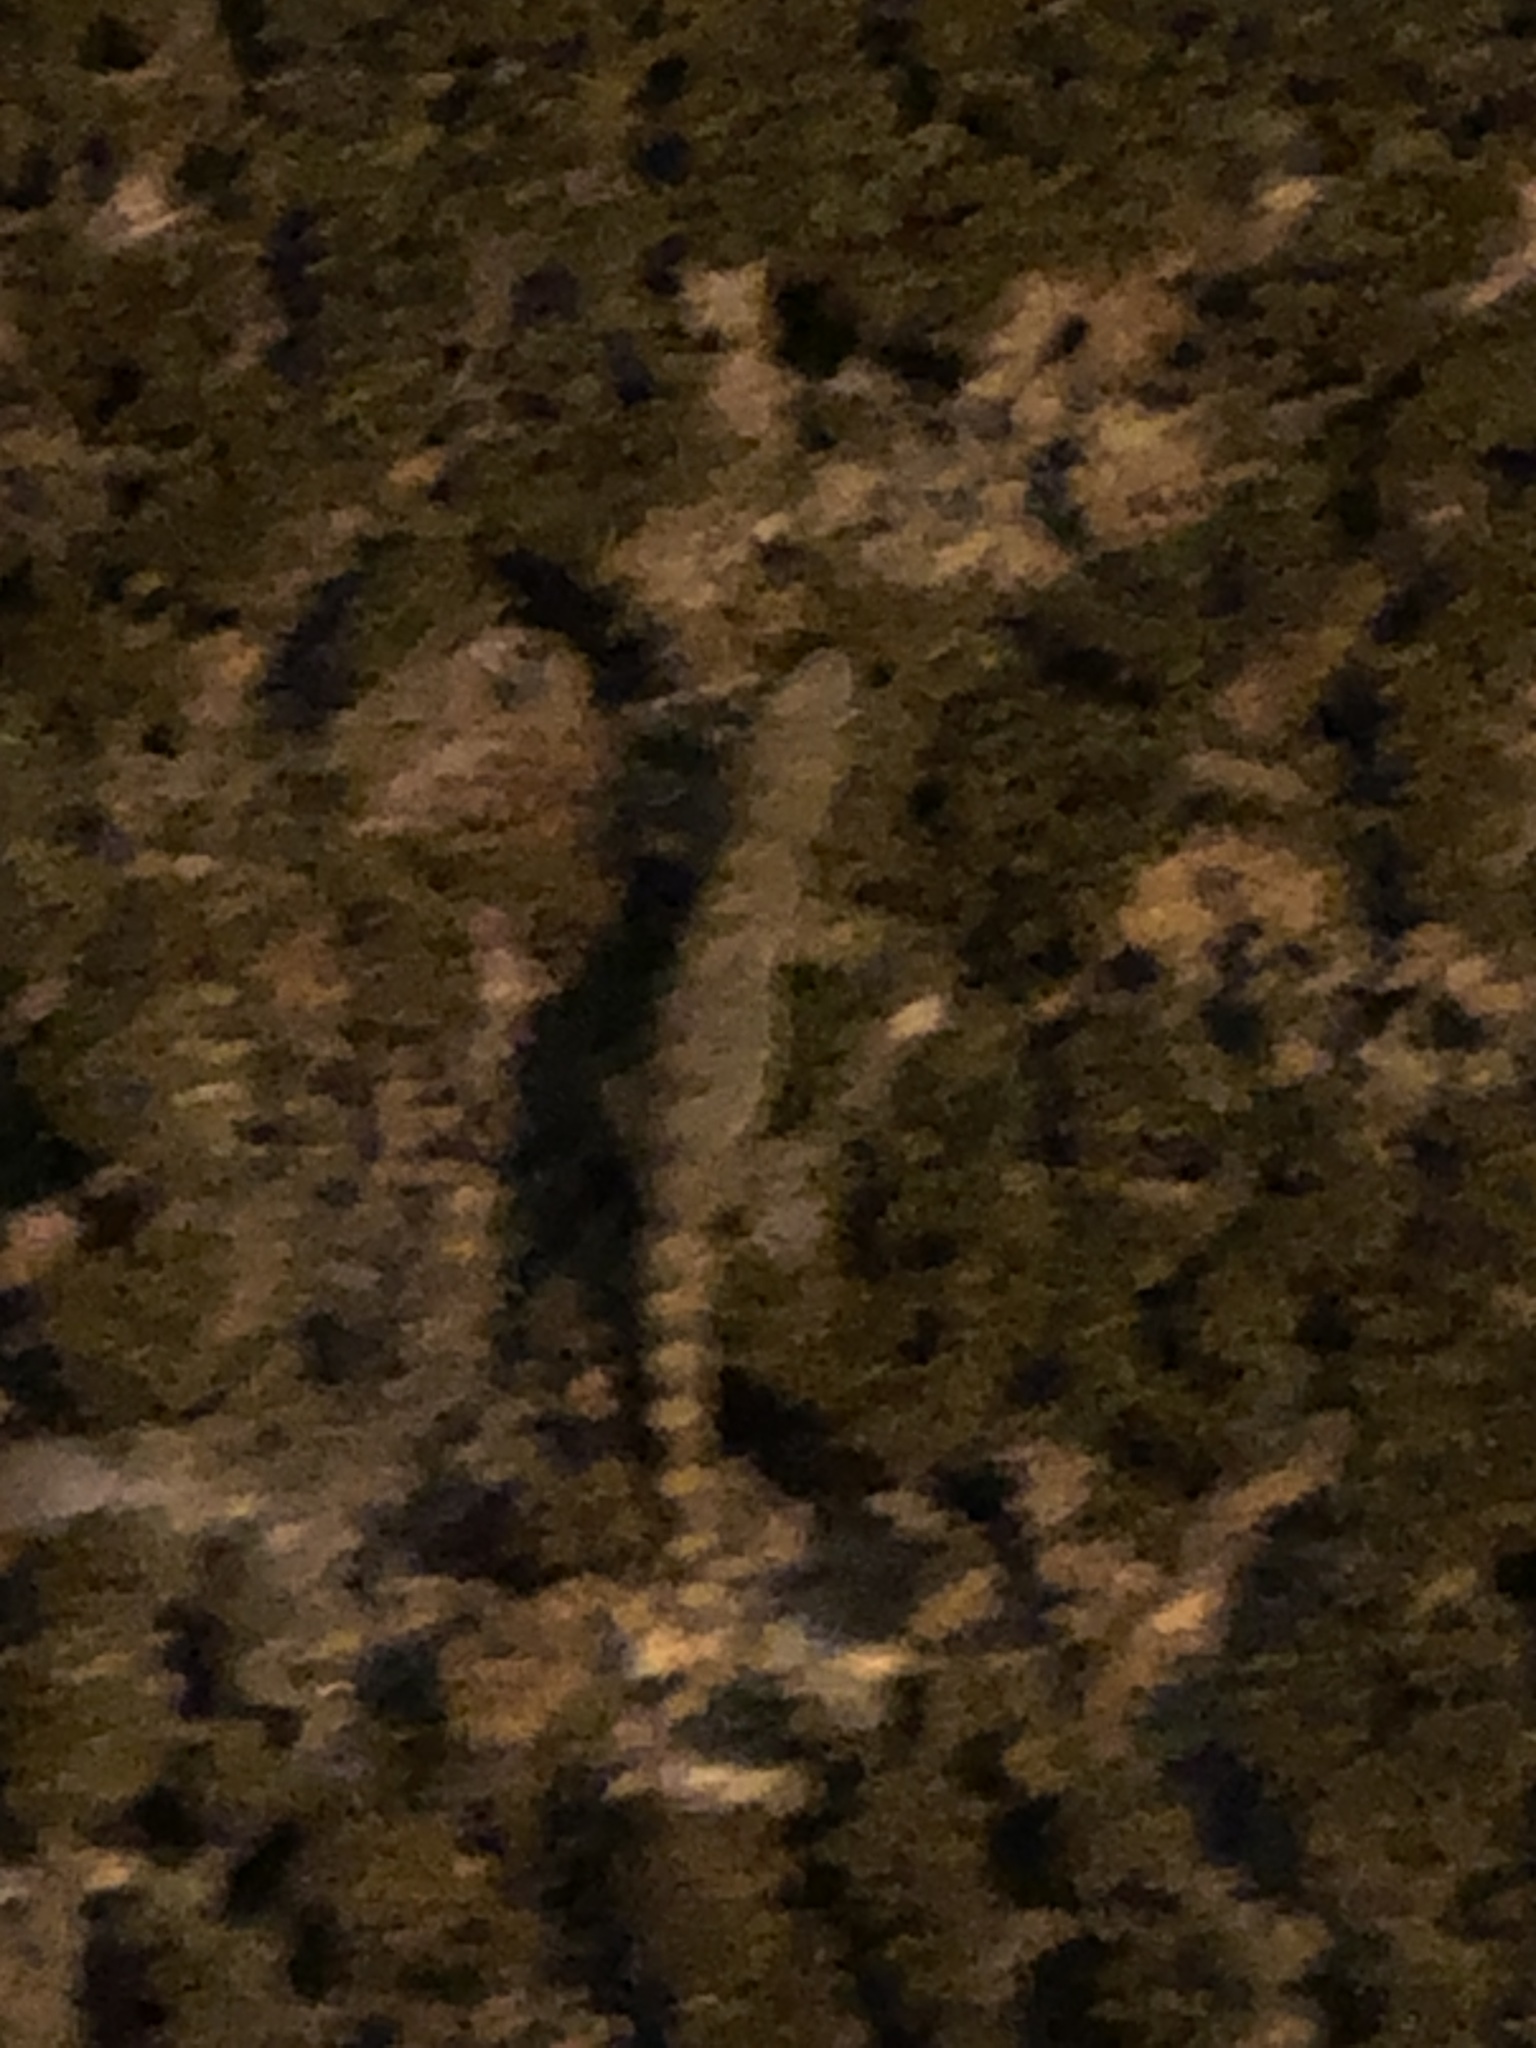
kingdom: Animalia
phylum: Chordata
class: Squamata
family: Gekkonidae
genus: Hemidactylus
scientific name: Hemidactylus garnotii
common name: Indo-pacific gecko
